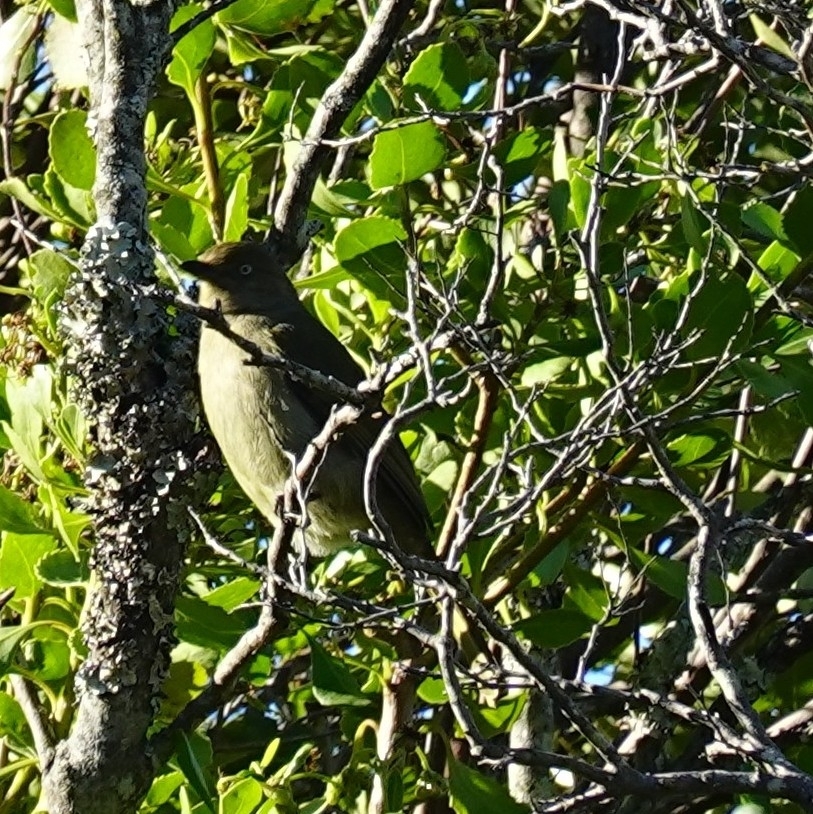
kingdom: Animalia
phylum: Chordata
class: Aves
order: Passeriformes
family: Pycnonotidae
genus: Andropadus
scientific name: Andropadus importunus
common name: Sombre greenbul
